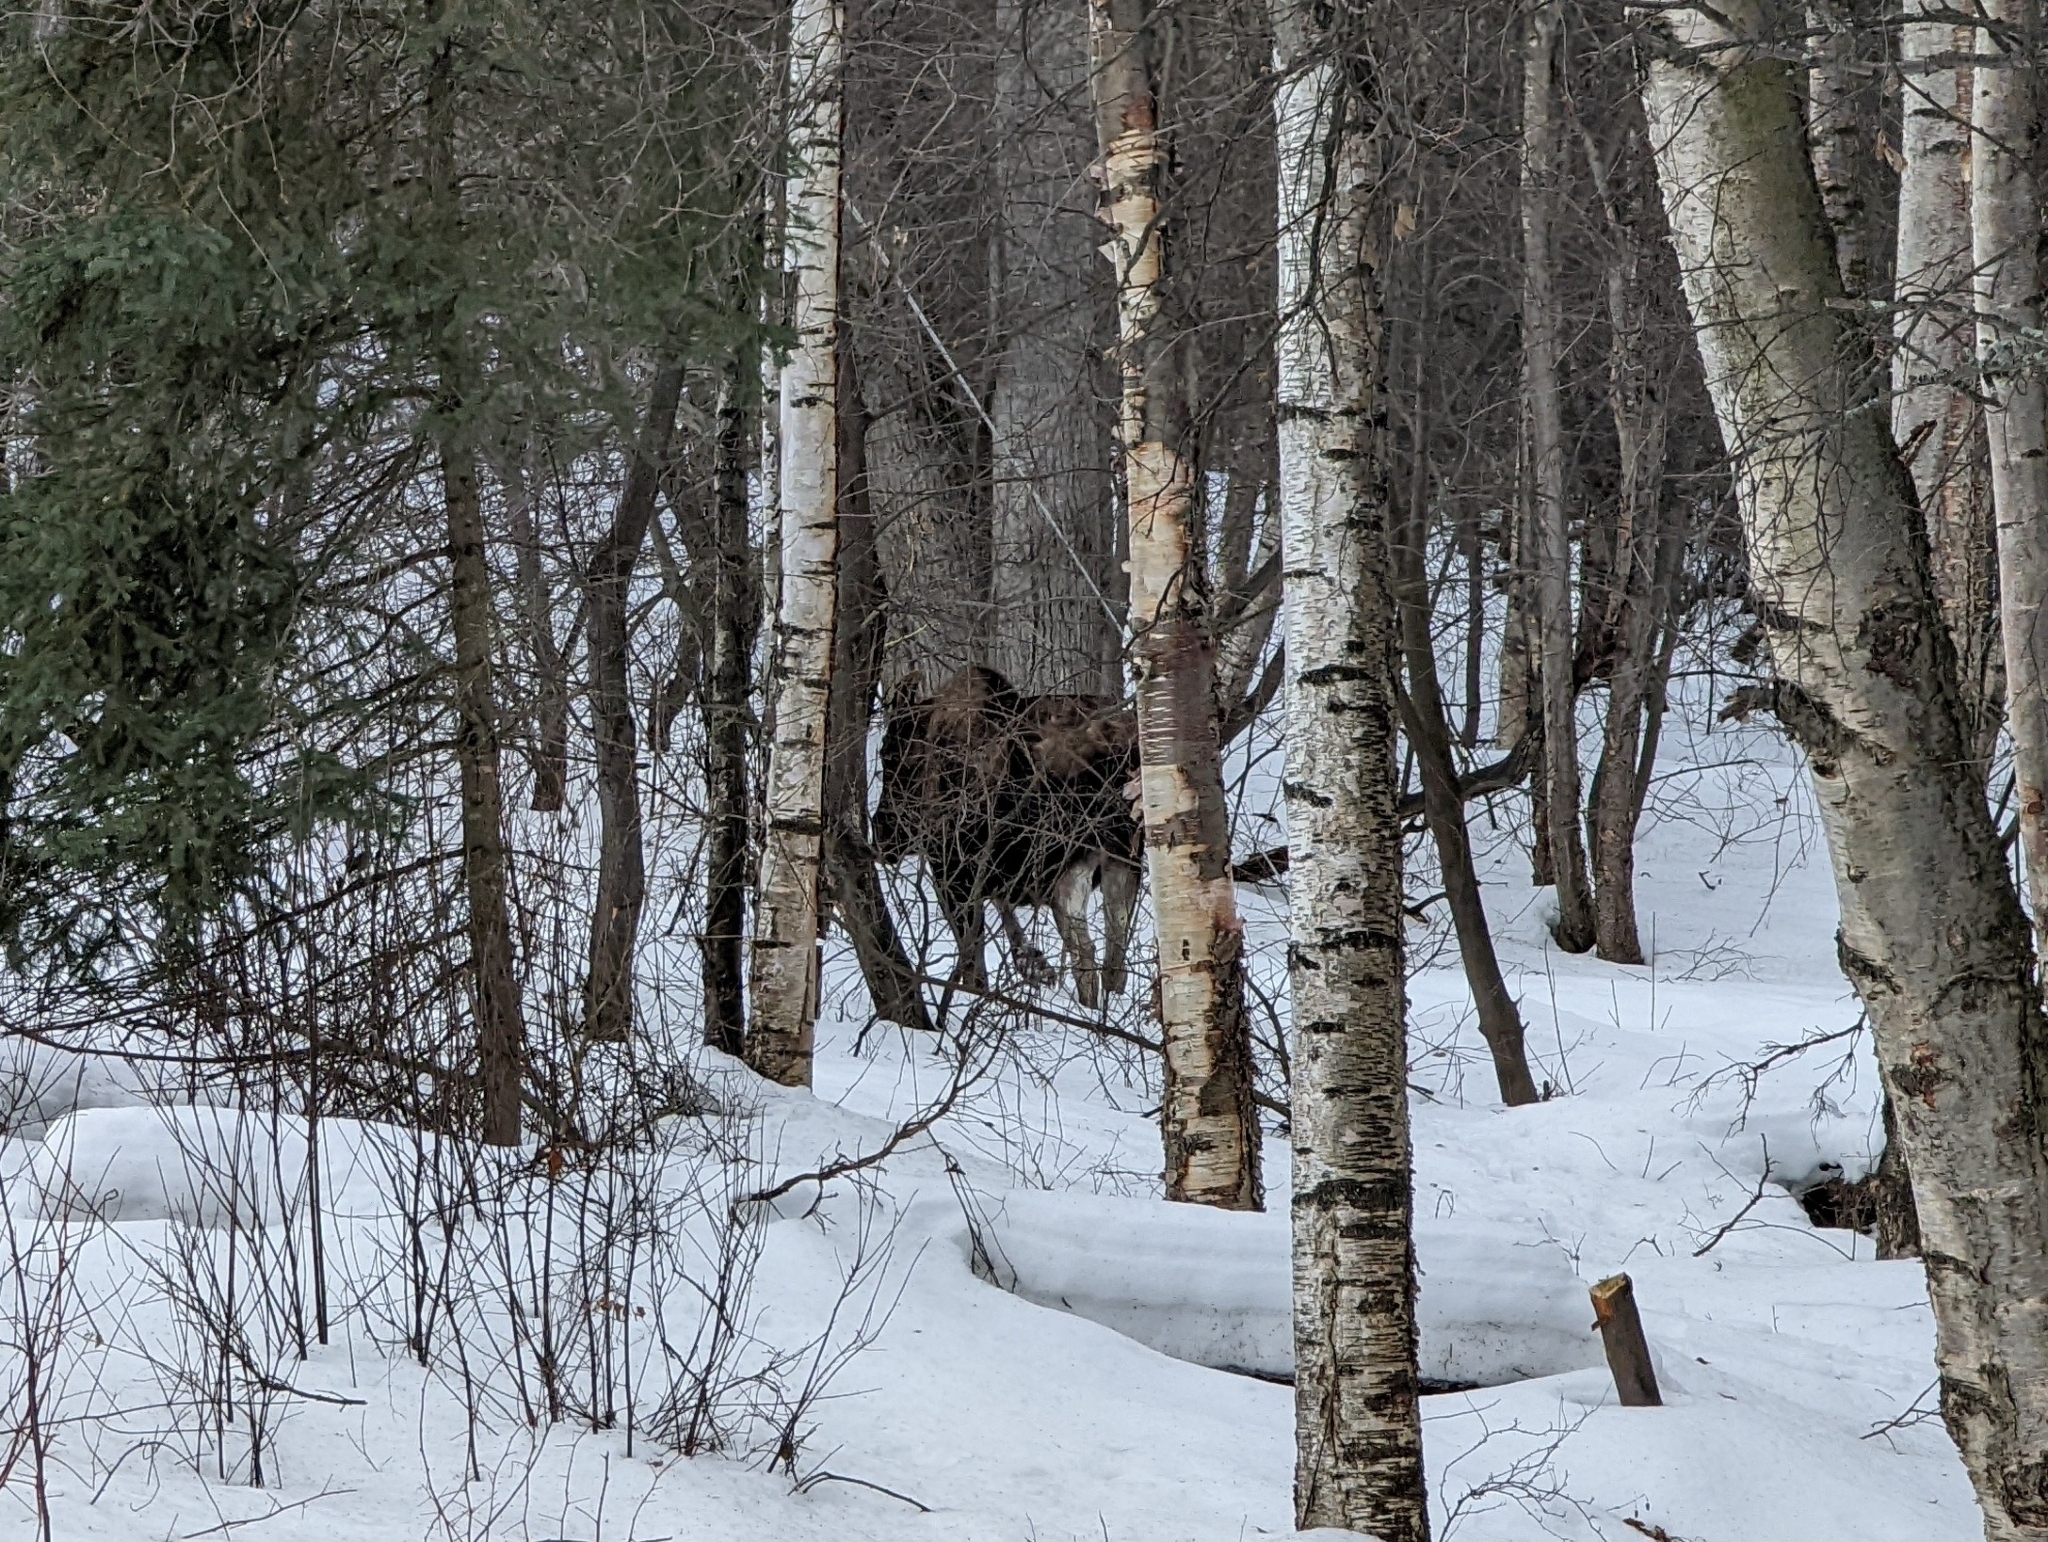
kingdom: Animalia
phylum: Chordata
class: Mammalia
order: Artiodactyla
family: Cervidae
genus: Alces
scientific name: Alces alces
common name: Moose
